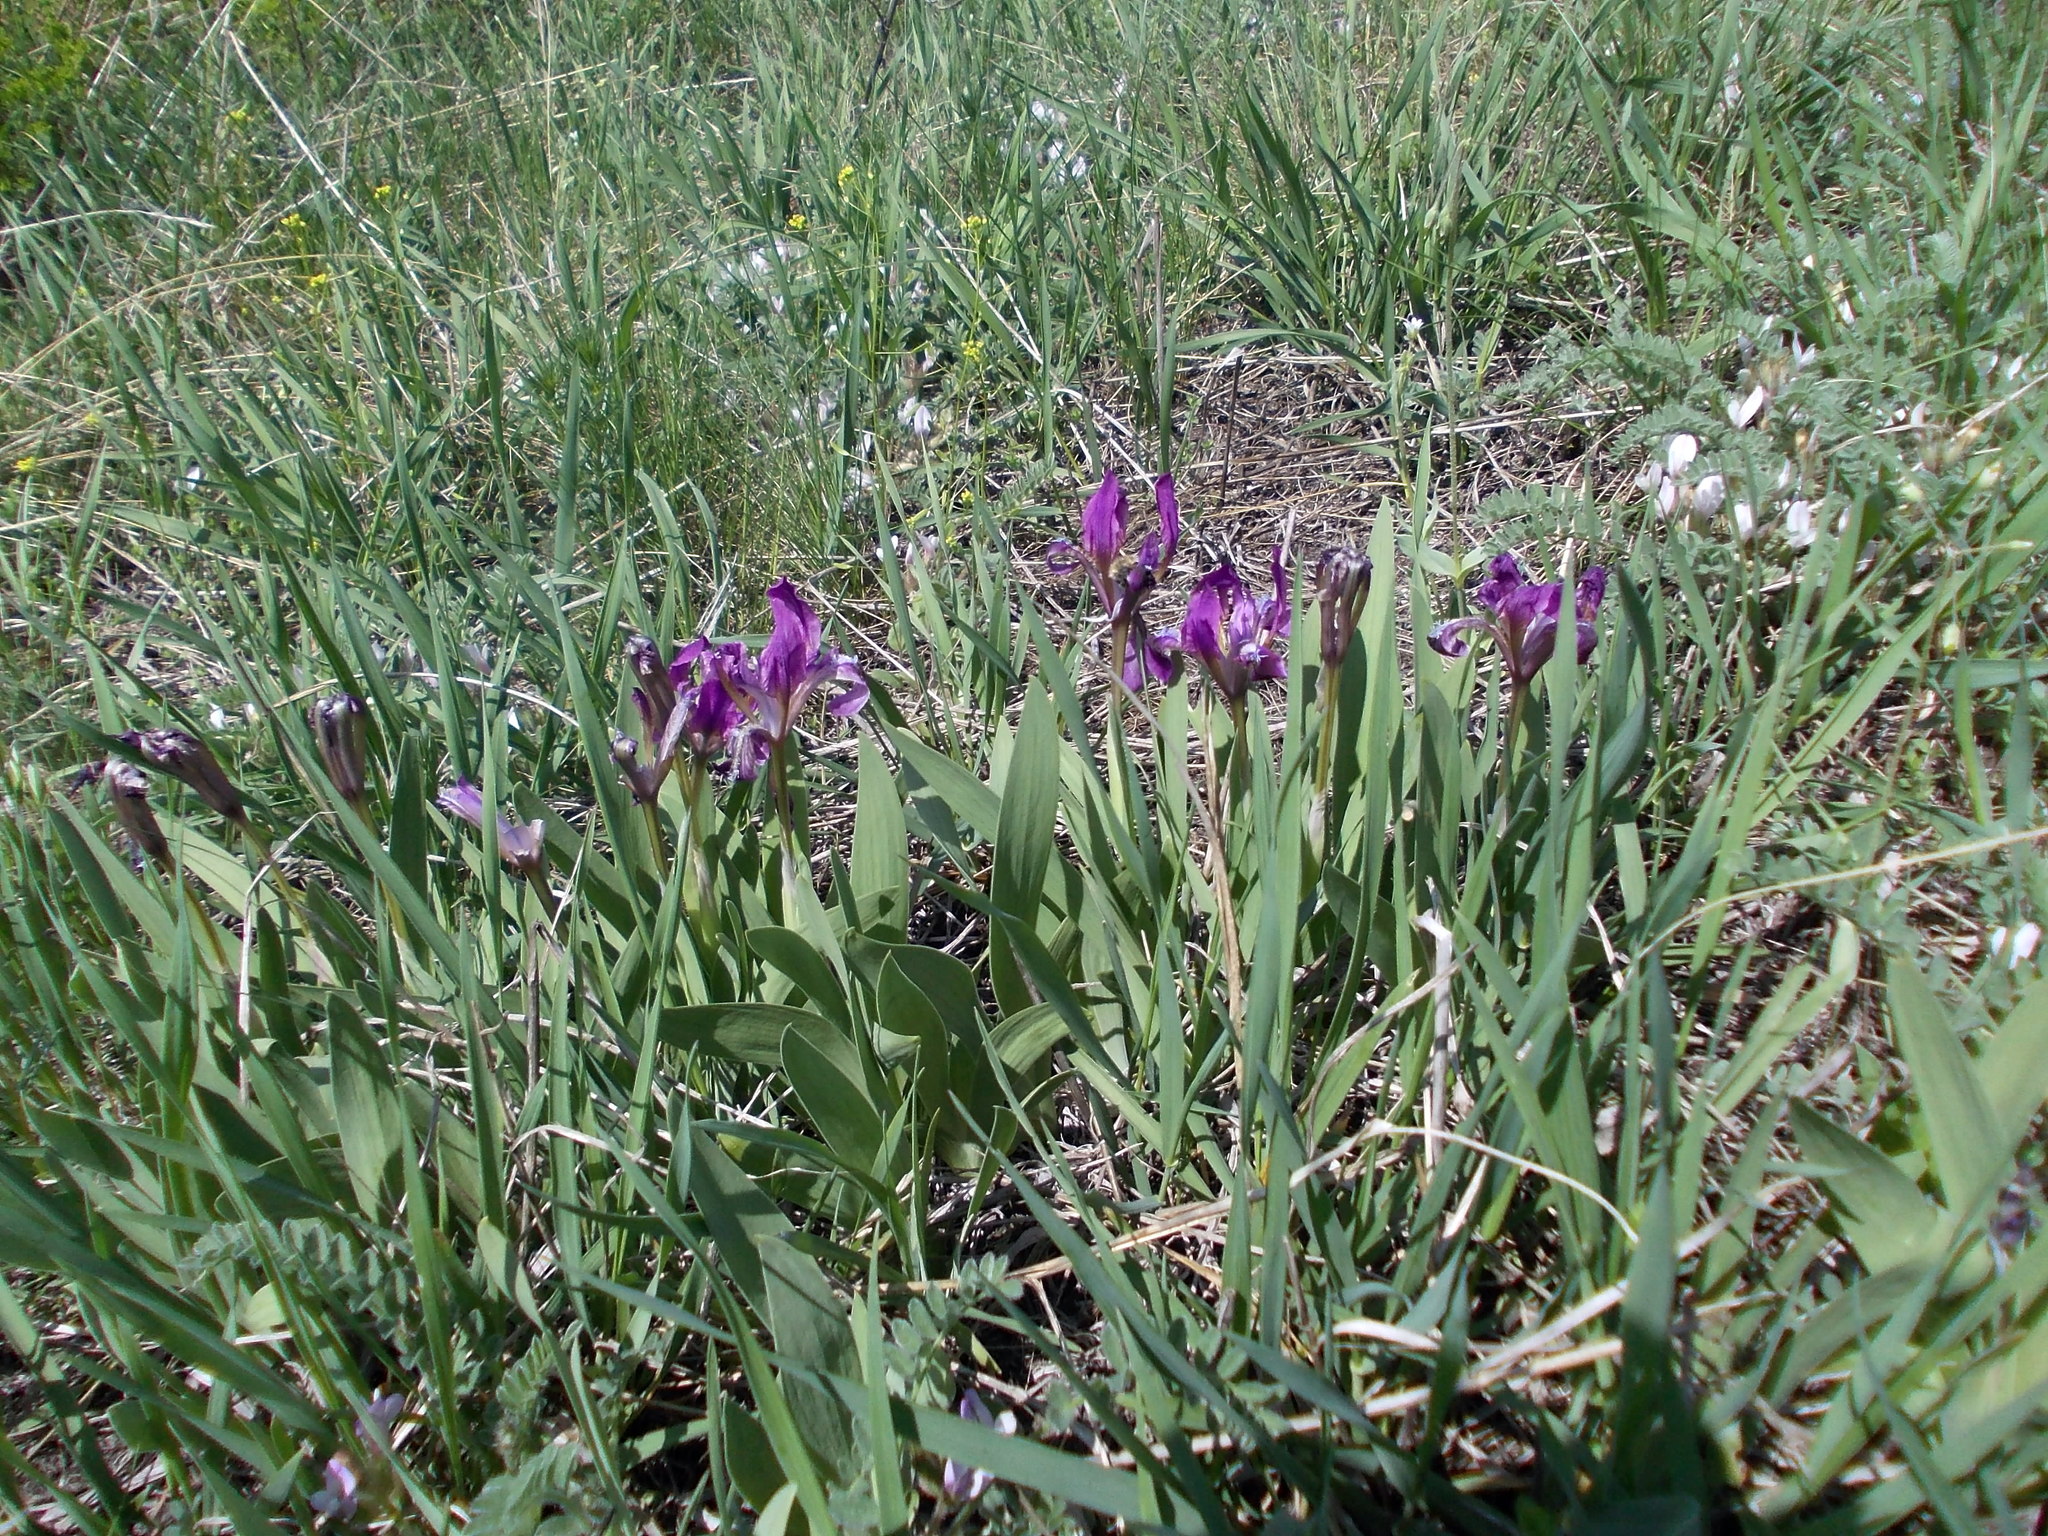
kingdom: Plantae
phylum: Tracheophyta
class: Liliopsida
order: Asparagales
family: Iridaceae
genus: Iris
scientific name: Iris pumila
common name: Dwarf iris
